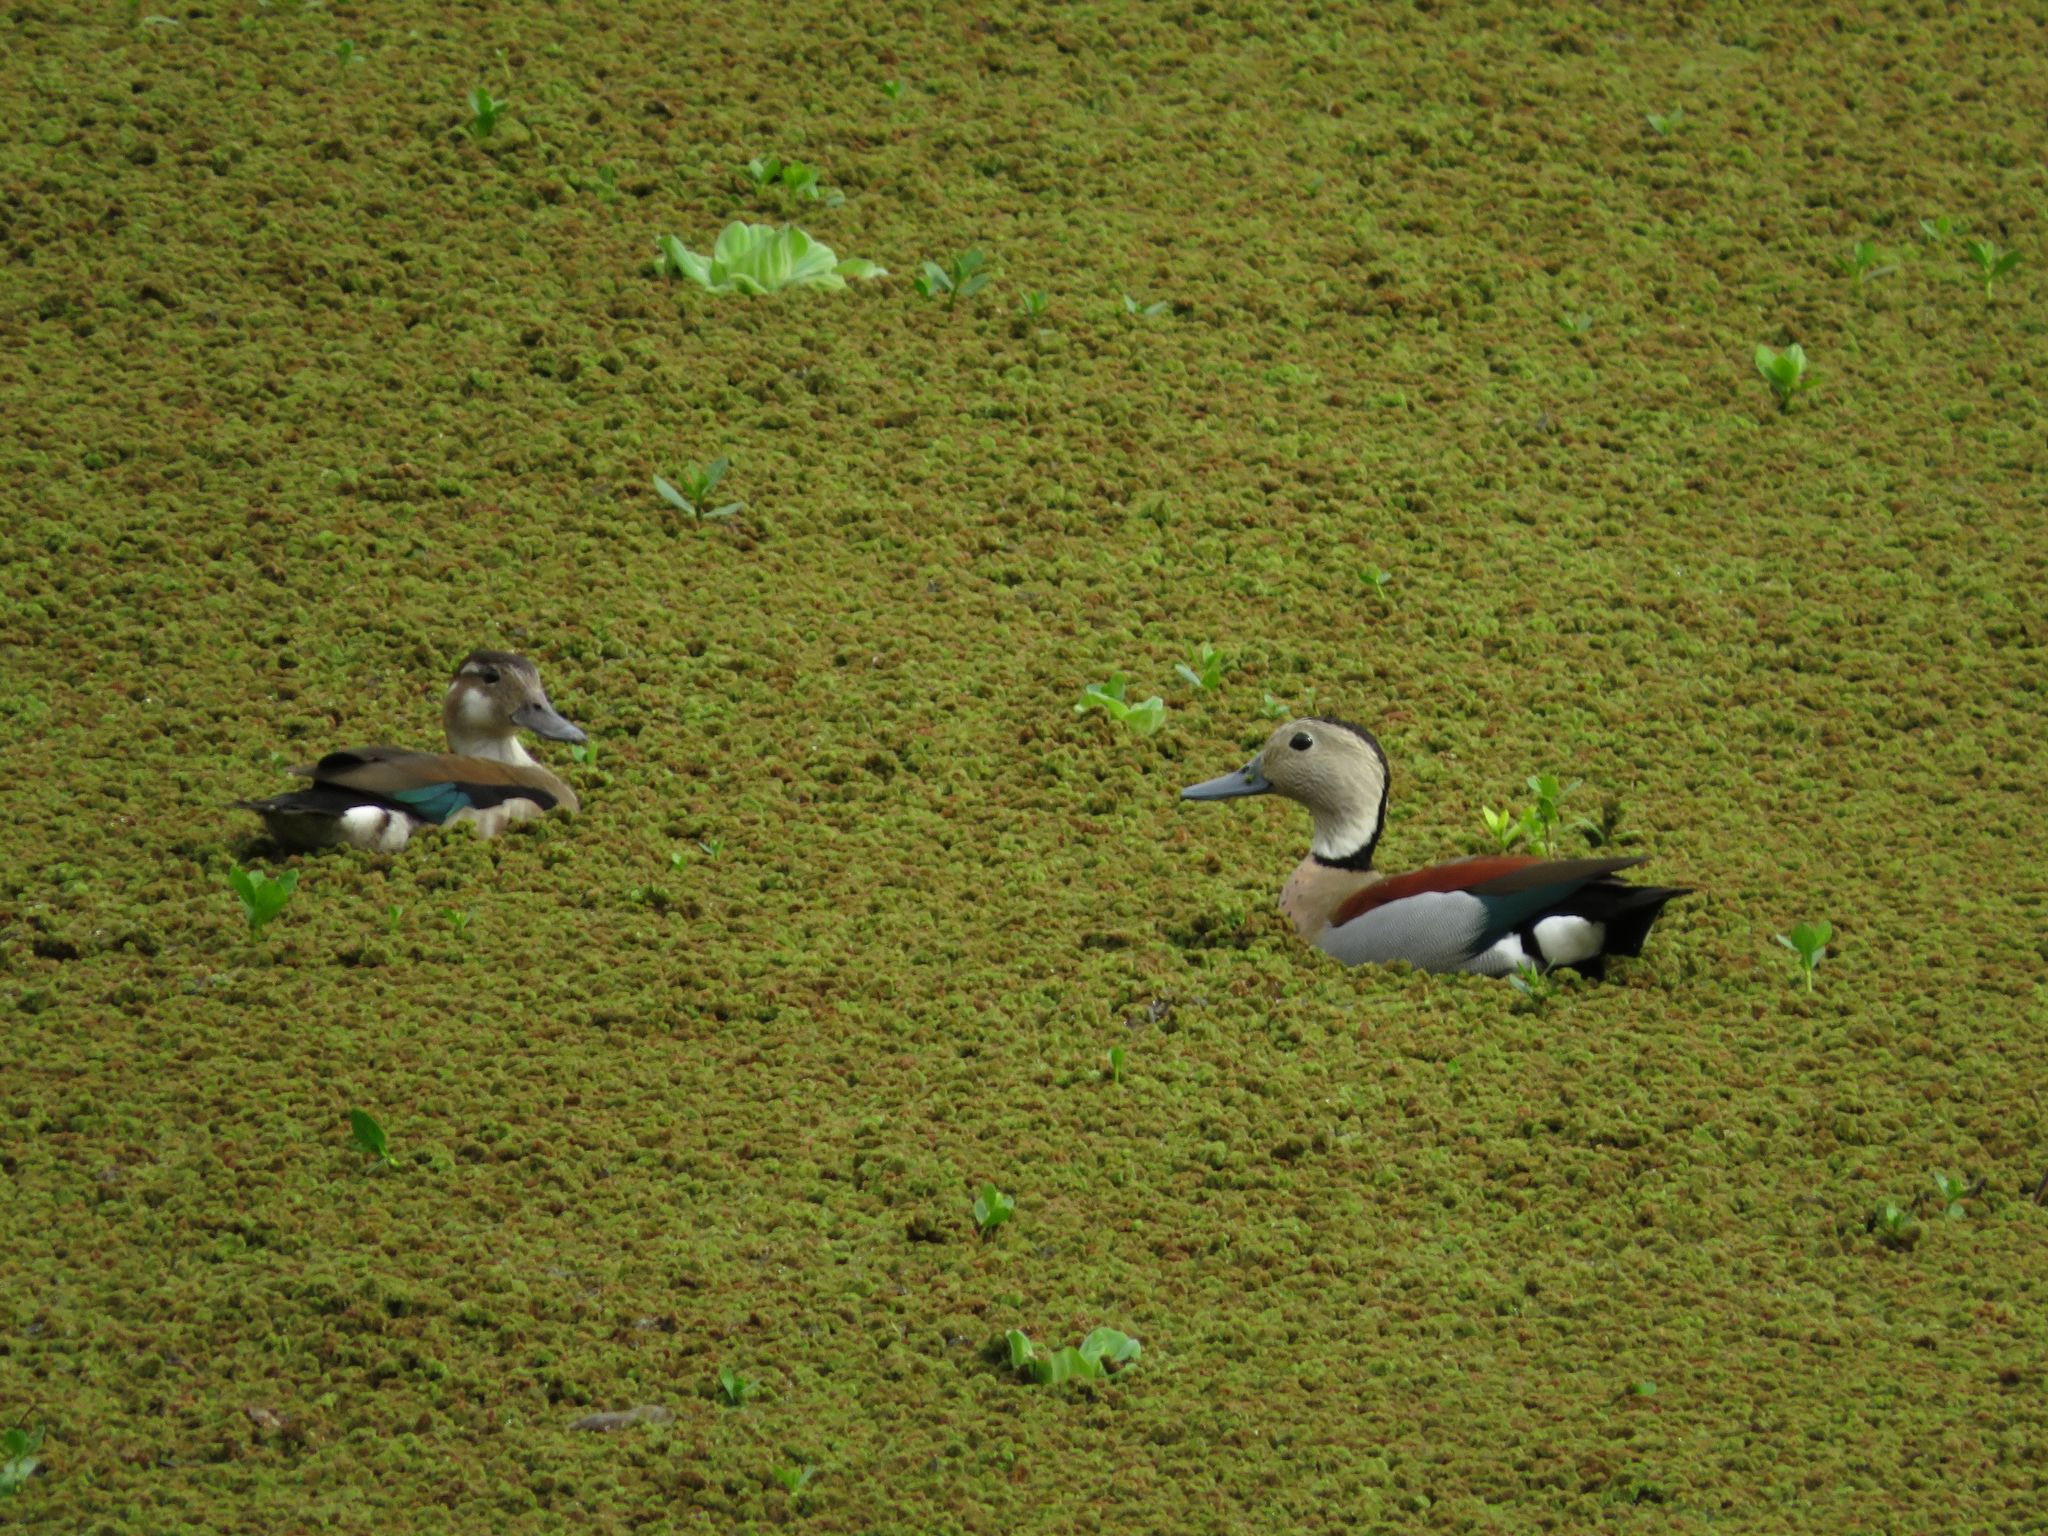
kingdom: Animalia
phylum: Chordata
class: Aves
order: Anseriformes
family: Anatidae
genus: Callonetta
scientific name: Callonetta leucophrys
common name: Ringed teal
